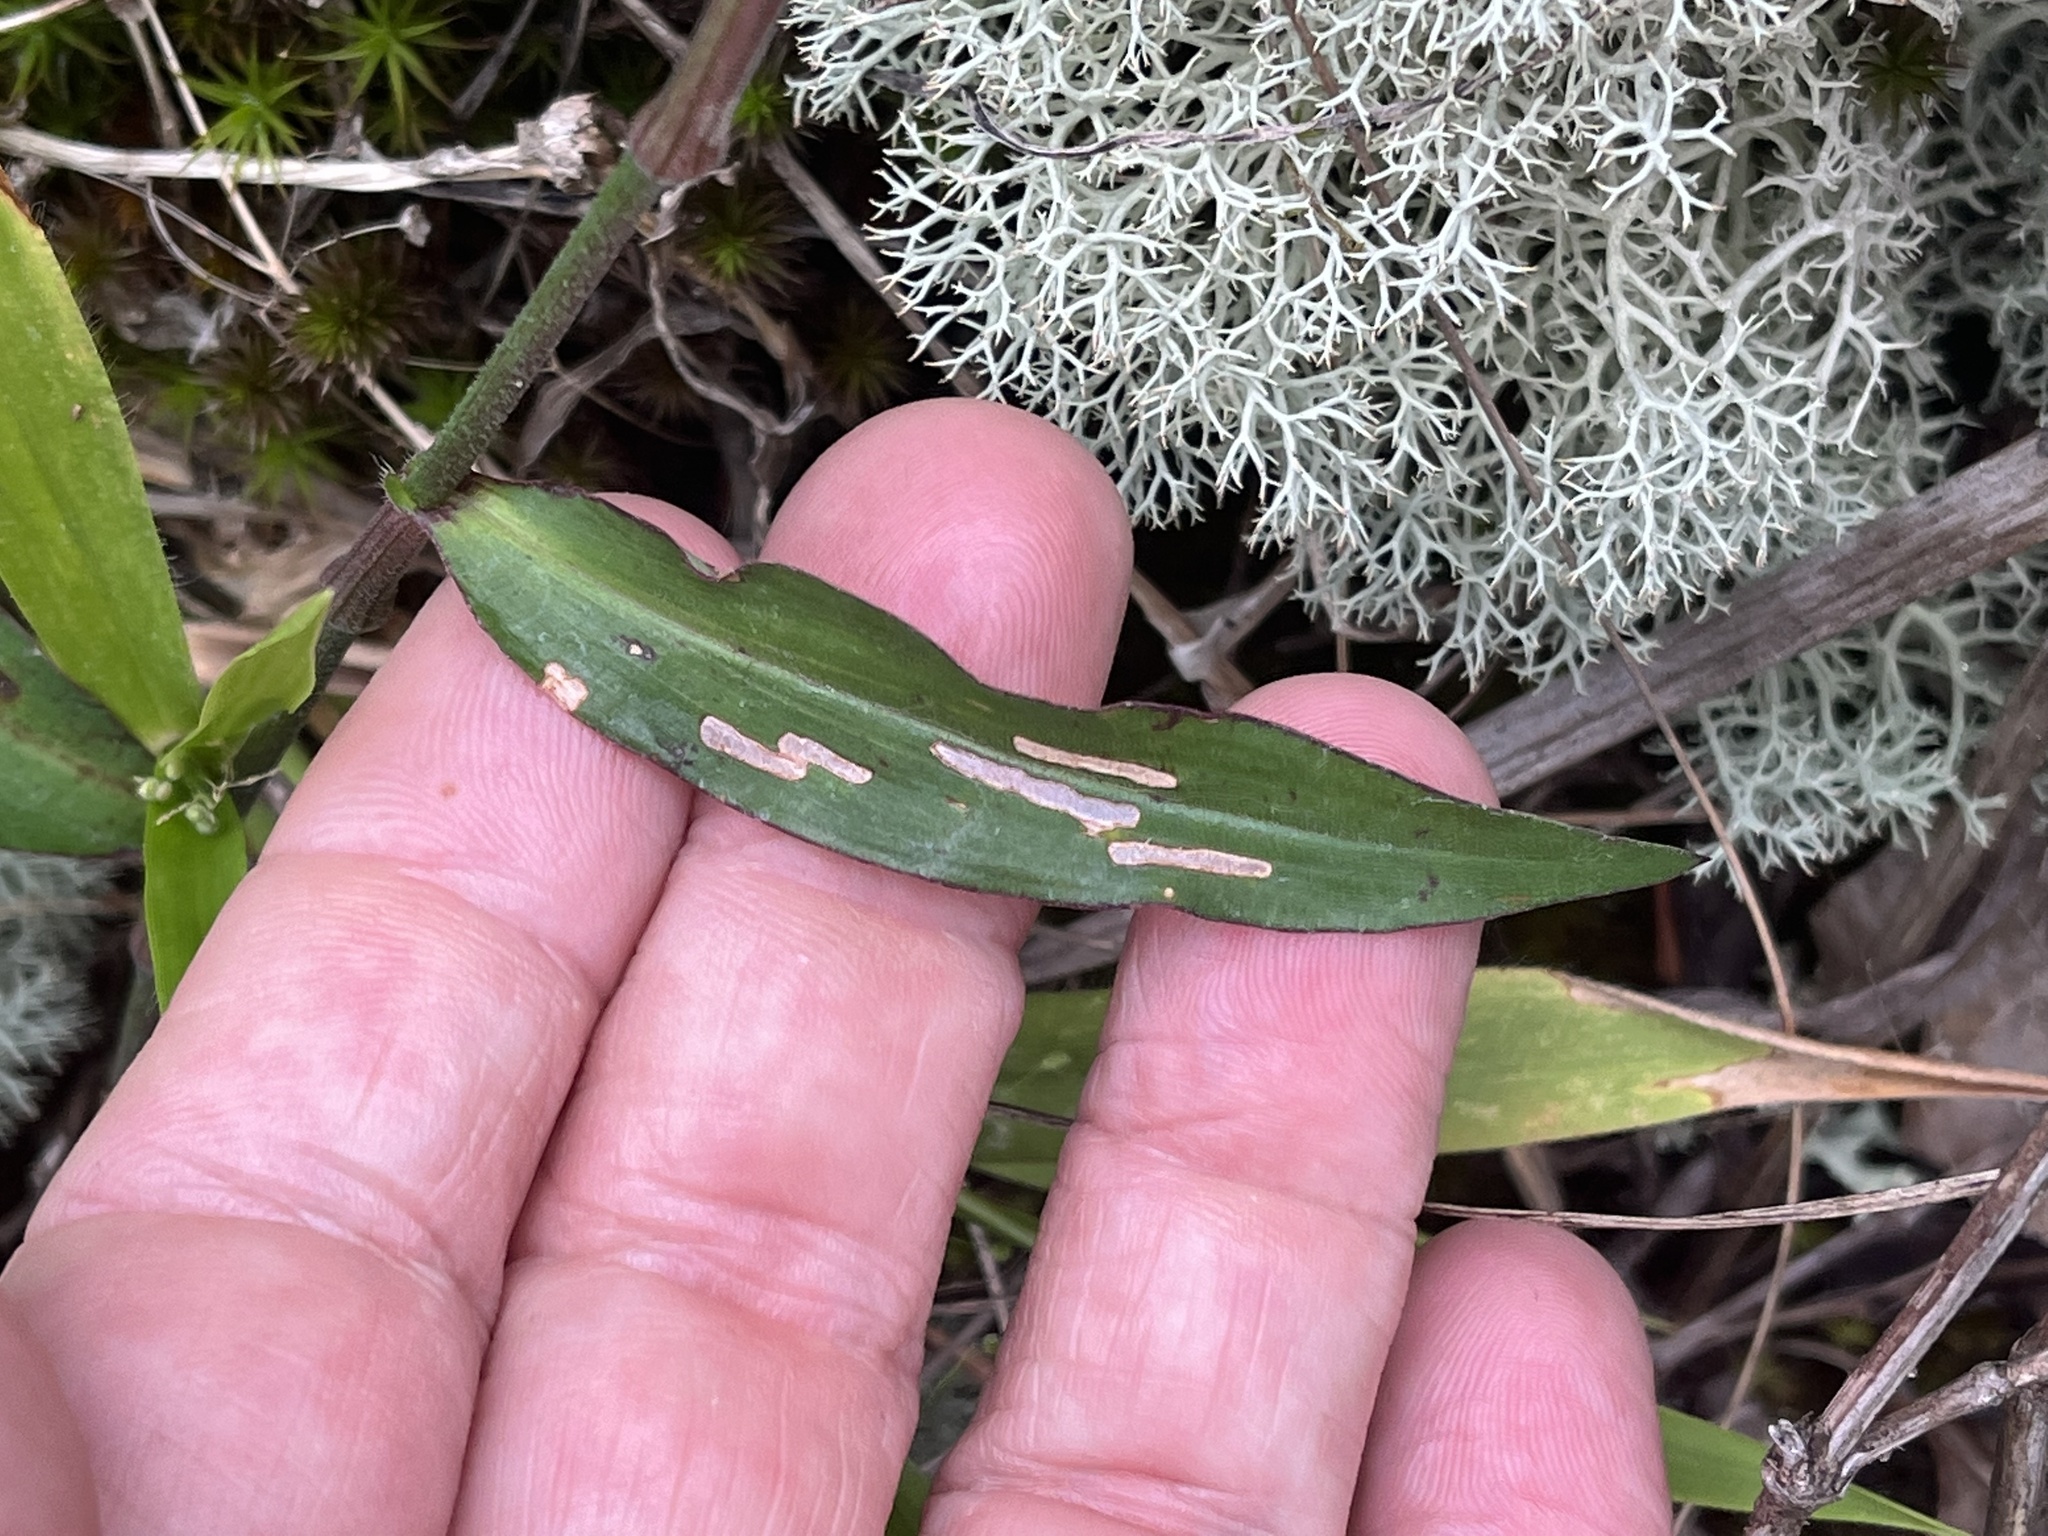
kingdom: Plantae
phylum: Tracheophyta
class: Liliopsida
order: Commelinales
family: Commelinaceae
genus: Commelina
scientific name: Commelina erecta
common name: Blousel blommetjie
